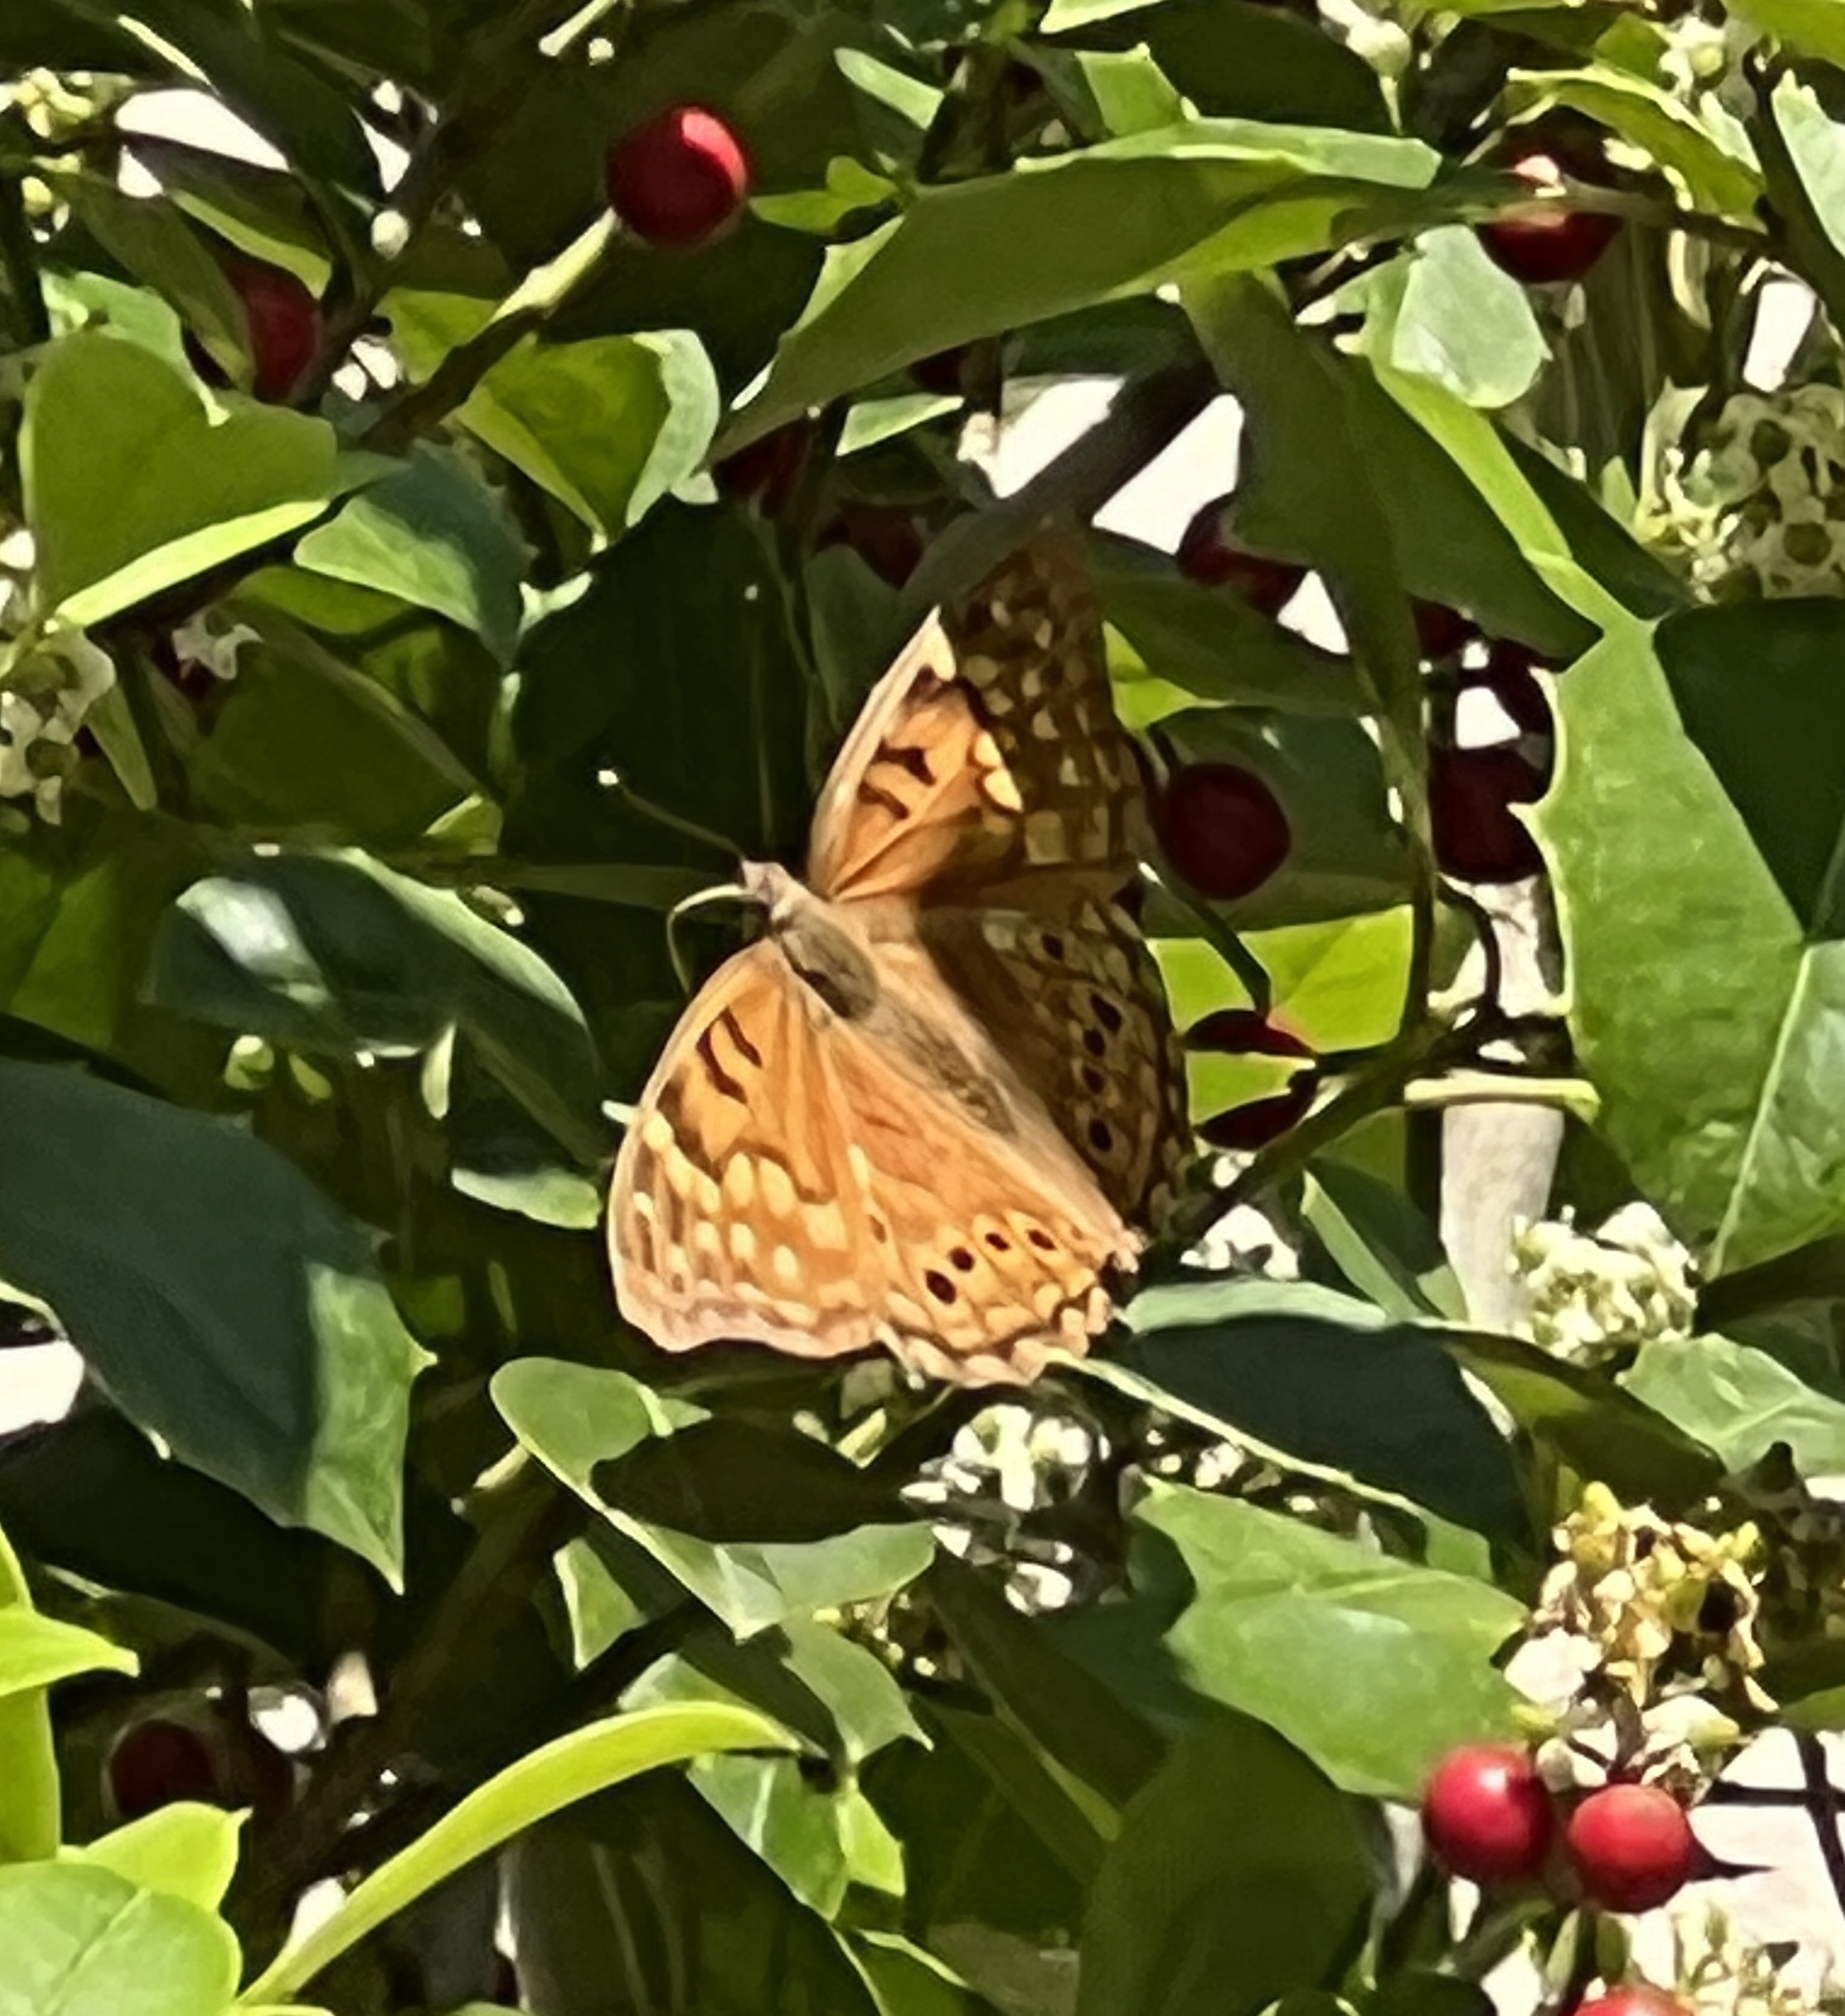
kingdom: Animalia
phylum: Arthropoda
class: Insecta
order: Lepidoptera
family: Nymphalidae
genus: Asterocampa
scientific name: Asterocampa clyton
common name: Tawny emperor
